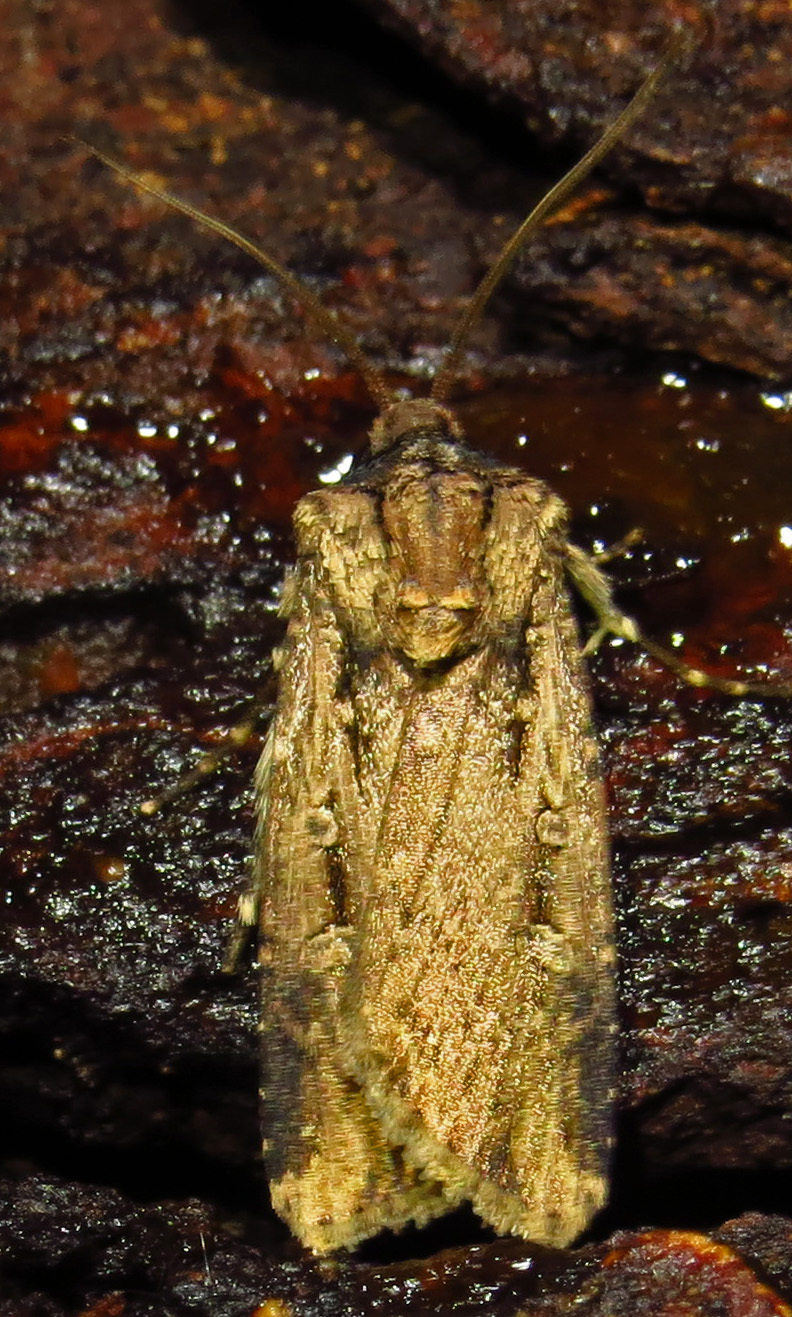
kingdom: Animalia
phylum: Arthropoda
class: Insecta
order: Lepidoptera
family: Noctuidae
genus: Feltia
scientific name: Feltia subterranea
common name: Granulate cutworm
